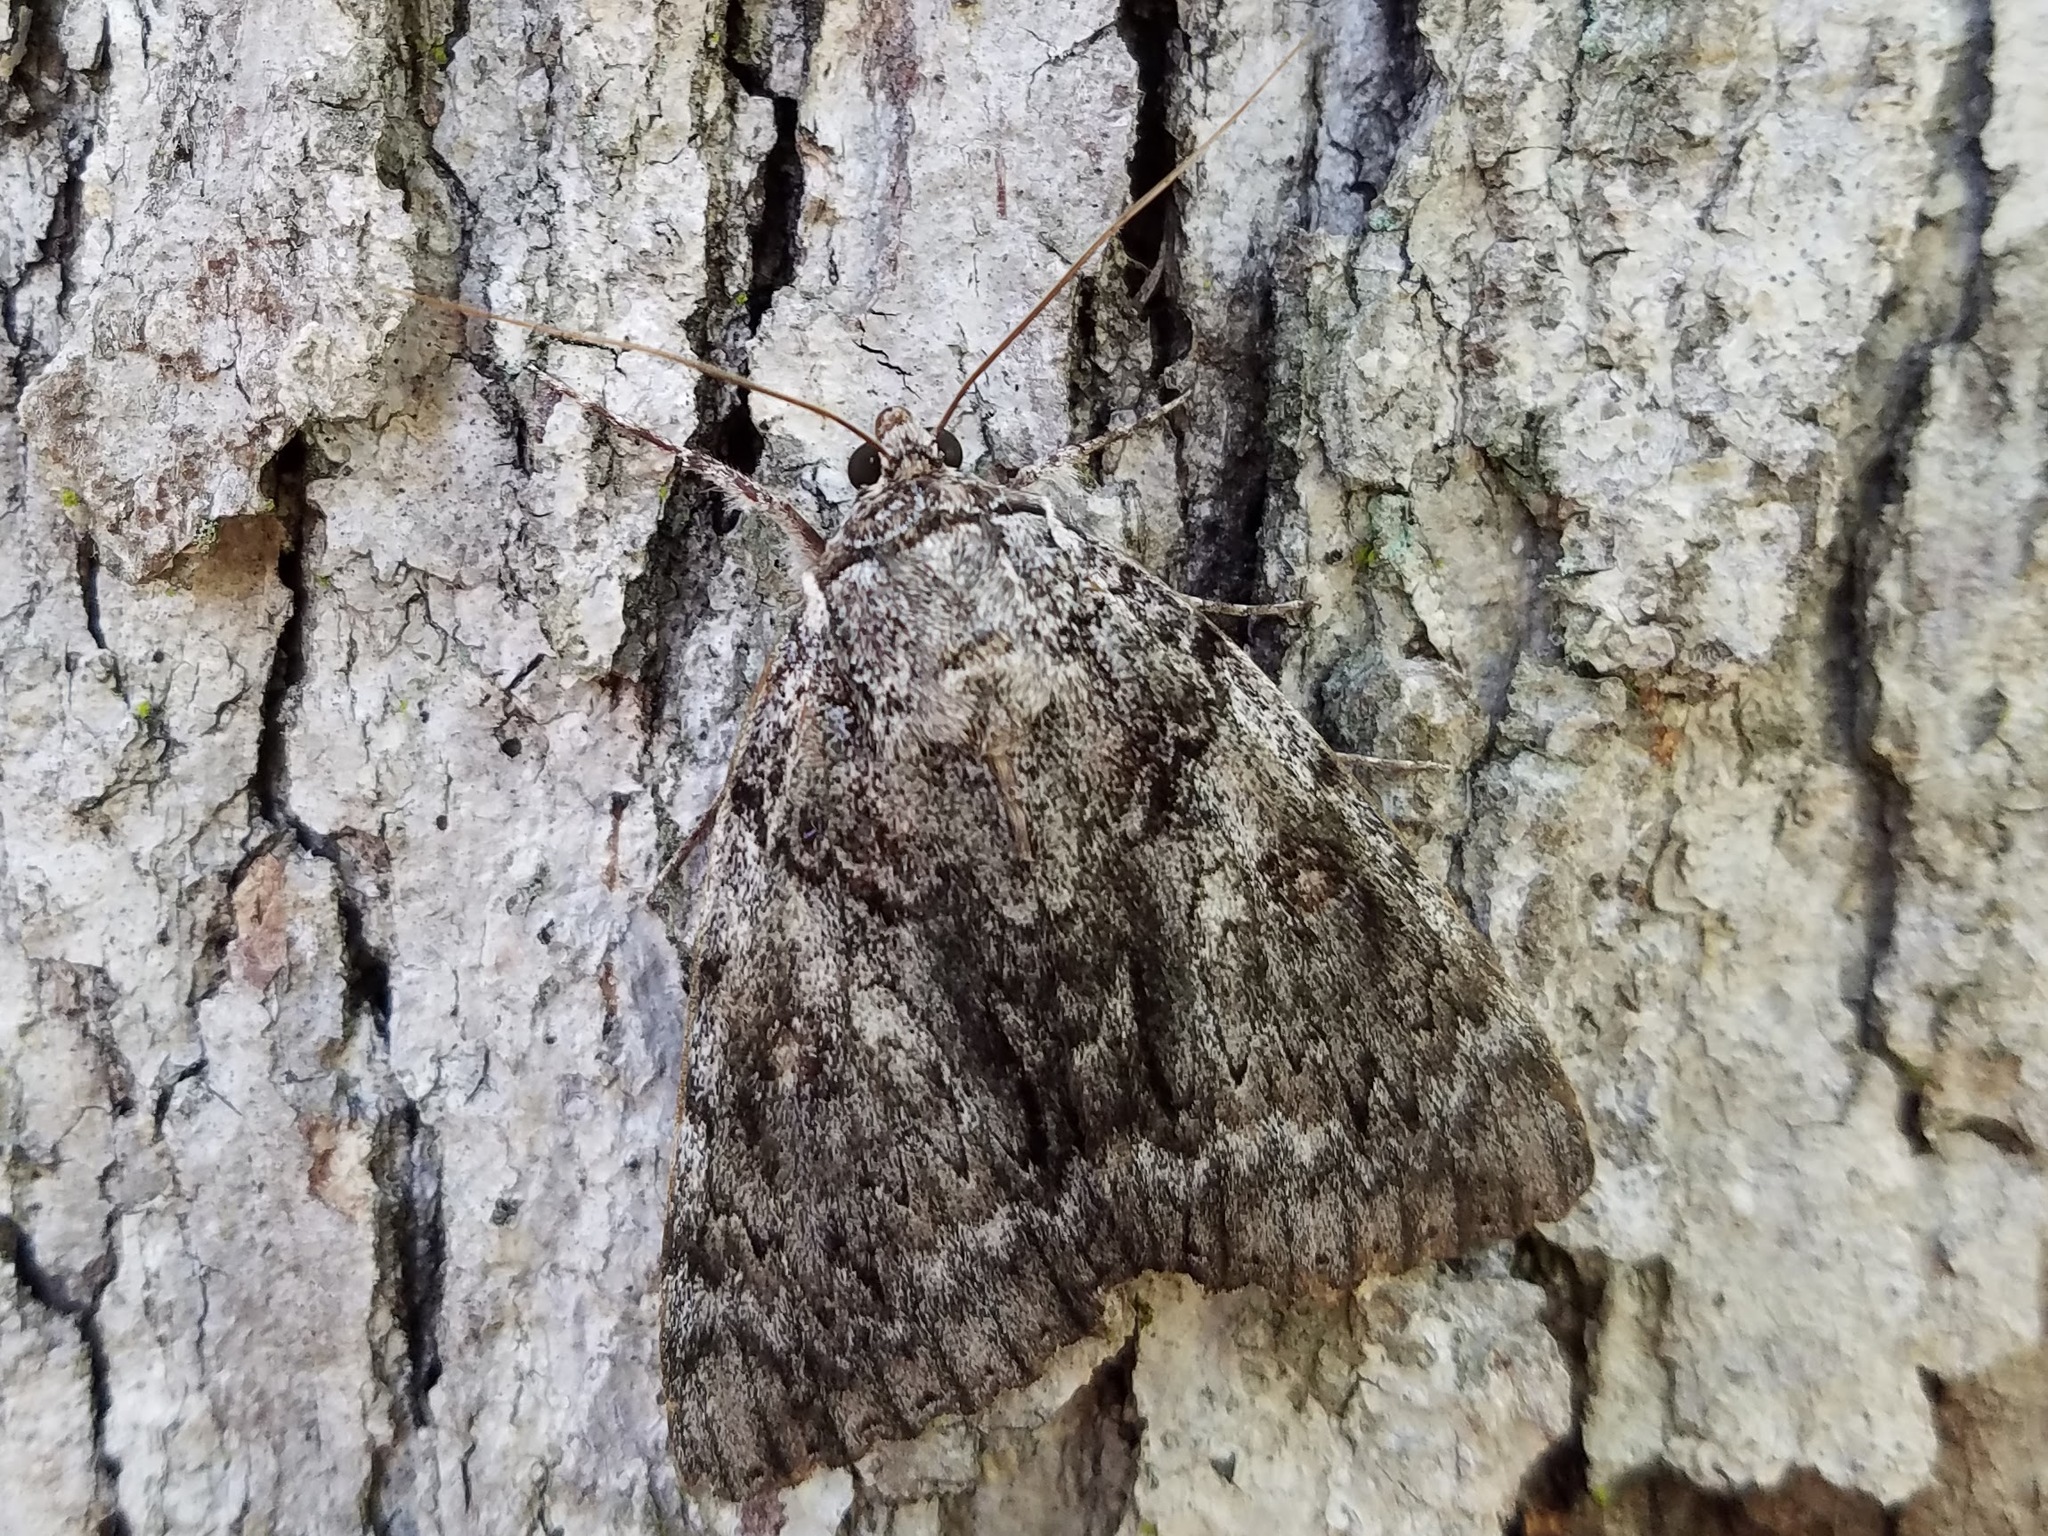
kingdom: Animalia
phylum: Arthropoda
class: Insecta
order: Lepidoptera
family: Erebidae
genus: Catocala
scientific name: Catocala ulalume
